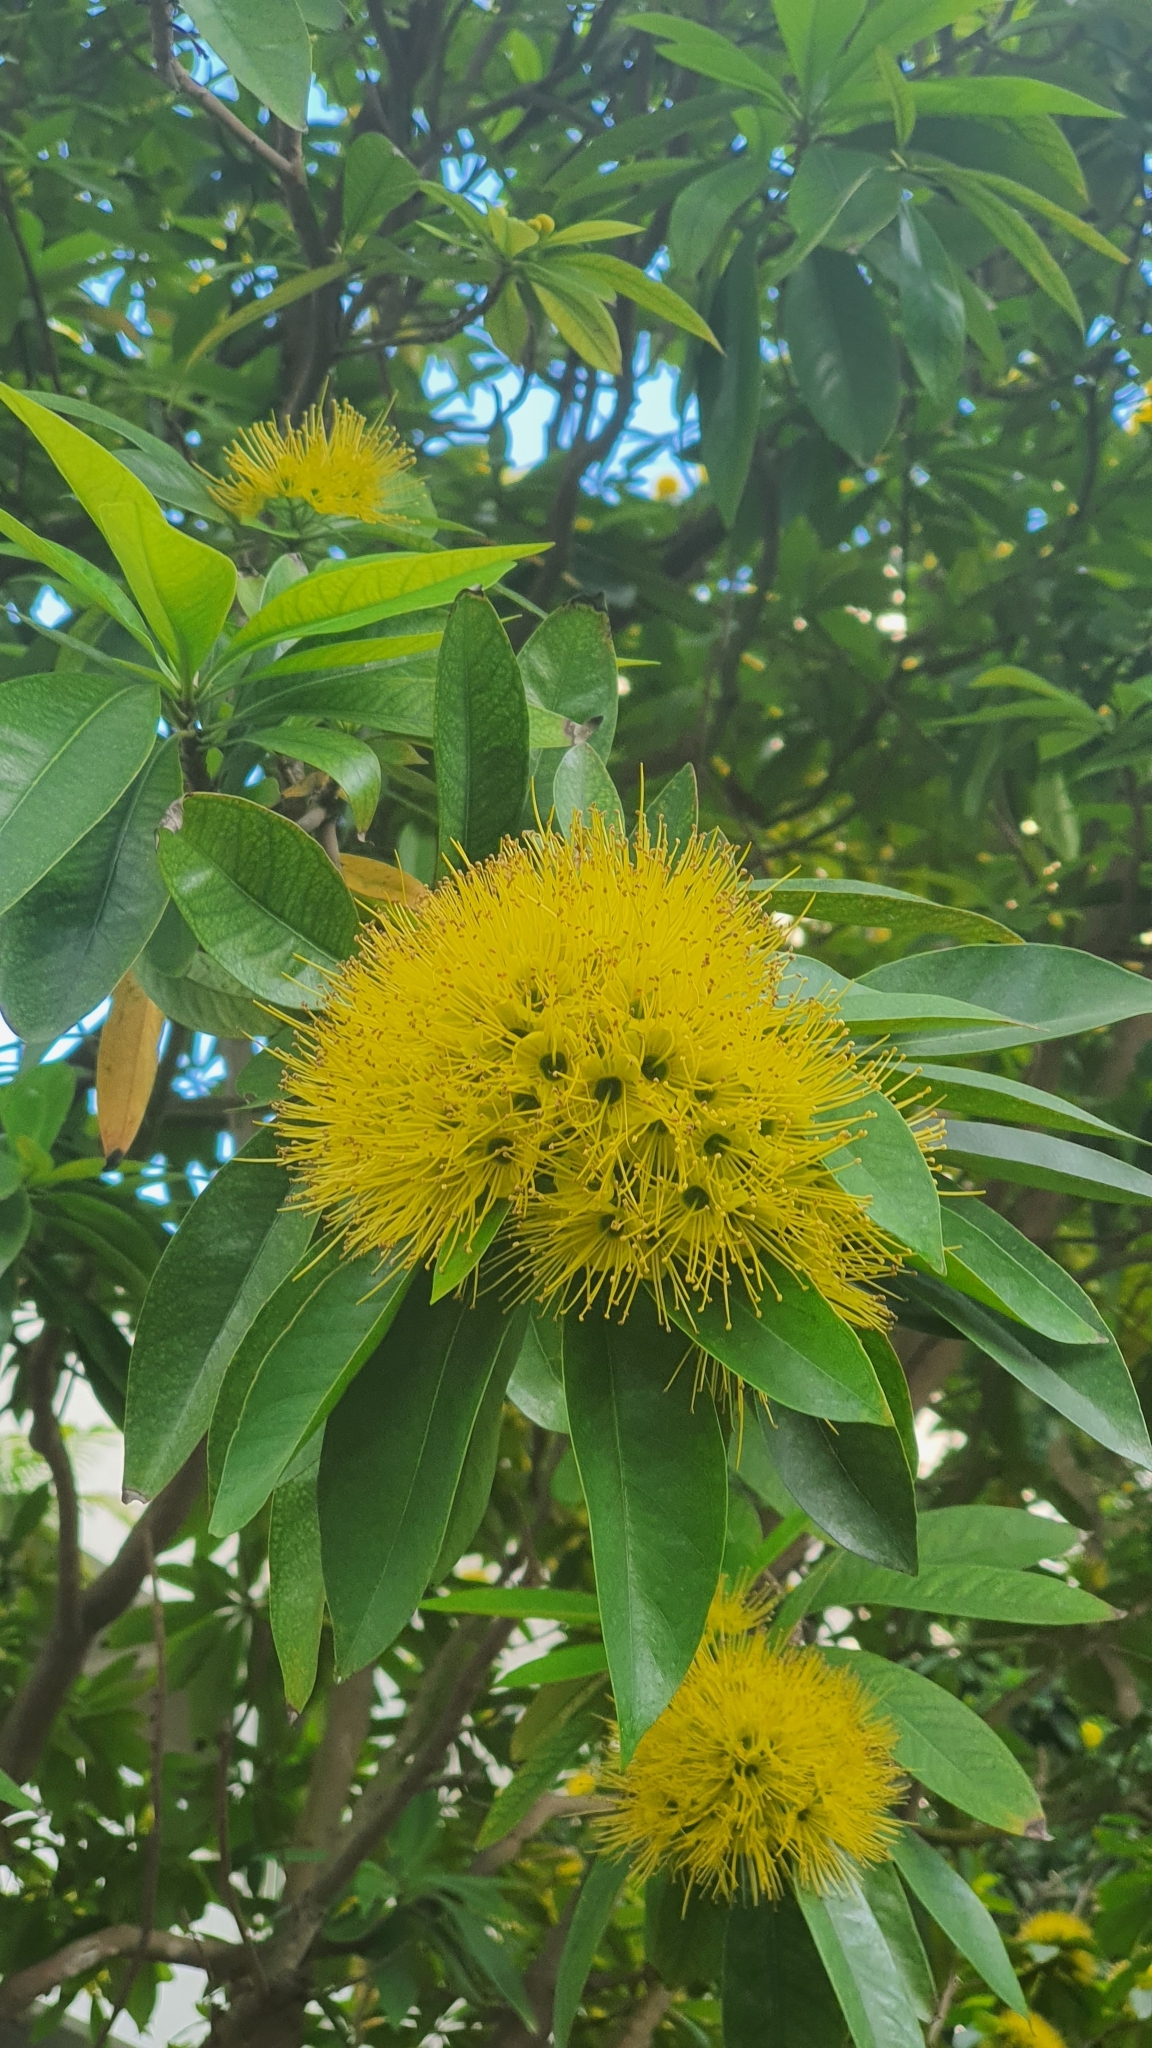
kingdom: Plantae
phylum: Tracheophyta
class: Magnoliopsida
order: Myrtales
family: Myrtaceae
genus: Xanthostemon
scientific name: Xanthostemon chrysanthus
